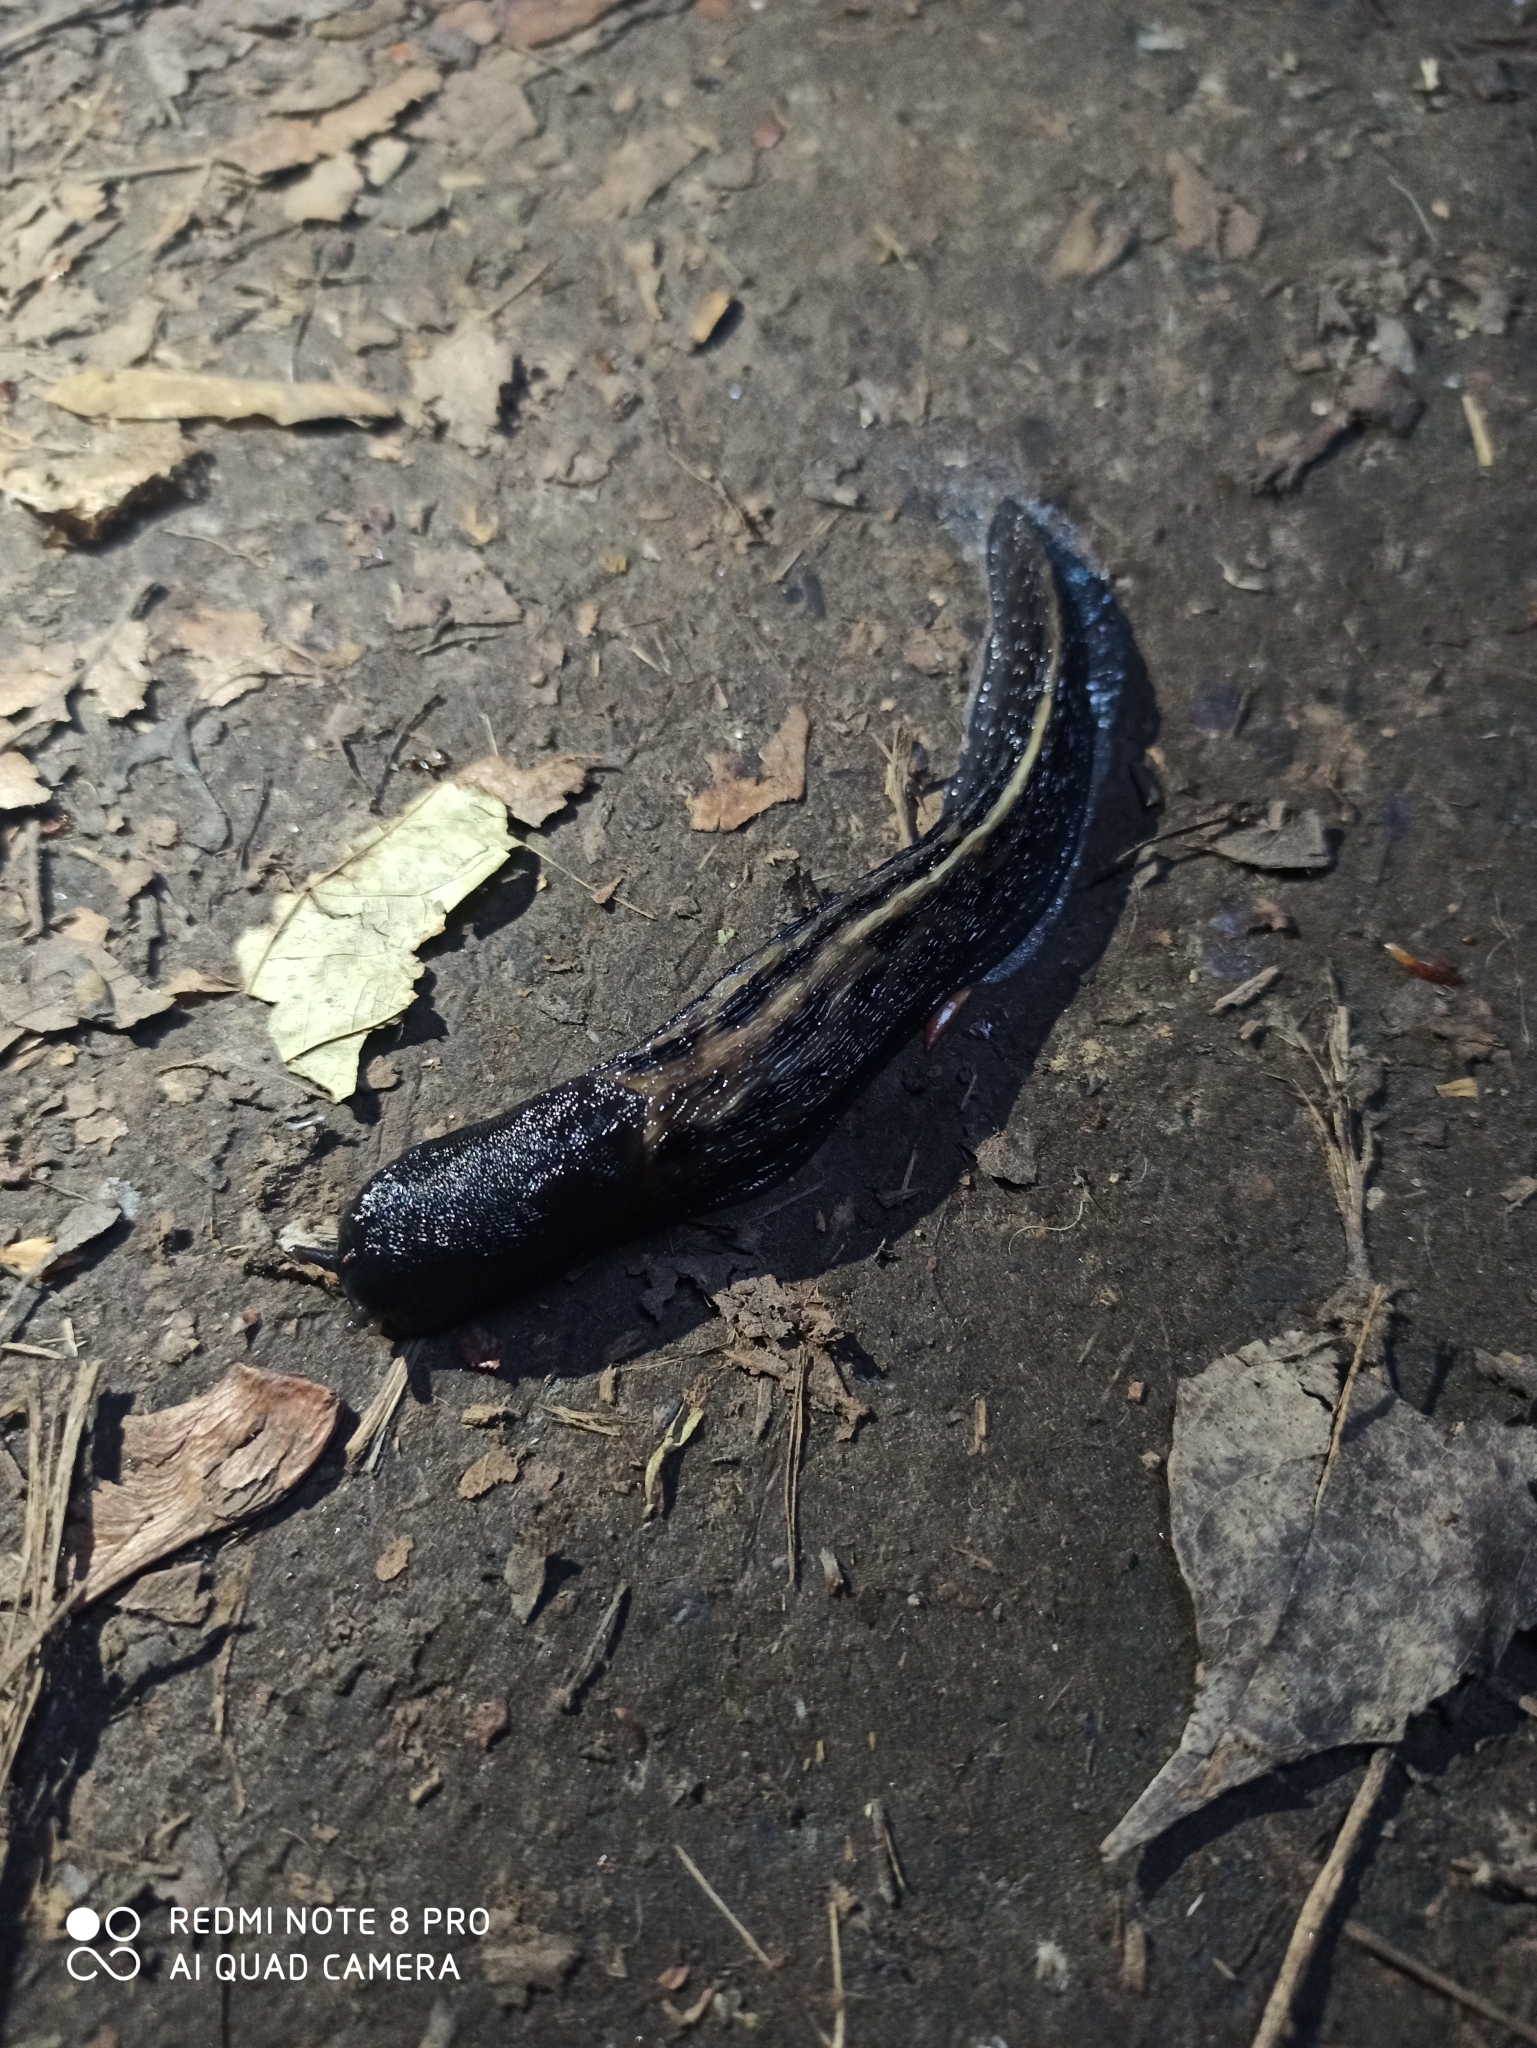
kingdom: Animalia
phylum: Mollusca
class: Gastropoda
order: Stylommatophora
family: Limacidae
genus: Limax
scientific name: Limax cinereoniger
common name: Ash-black slug
